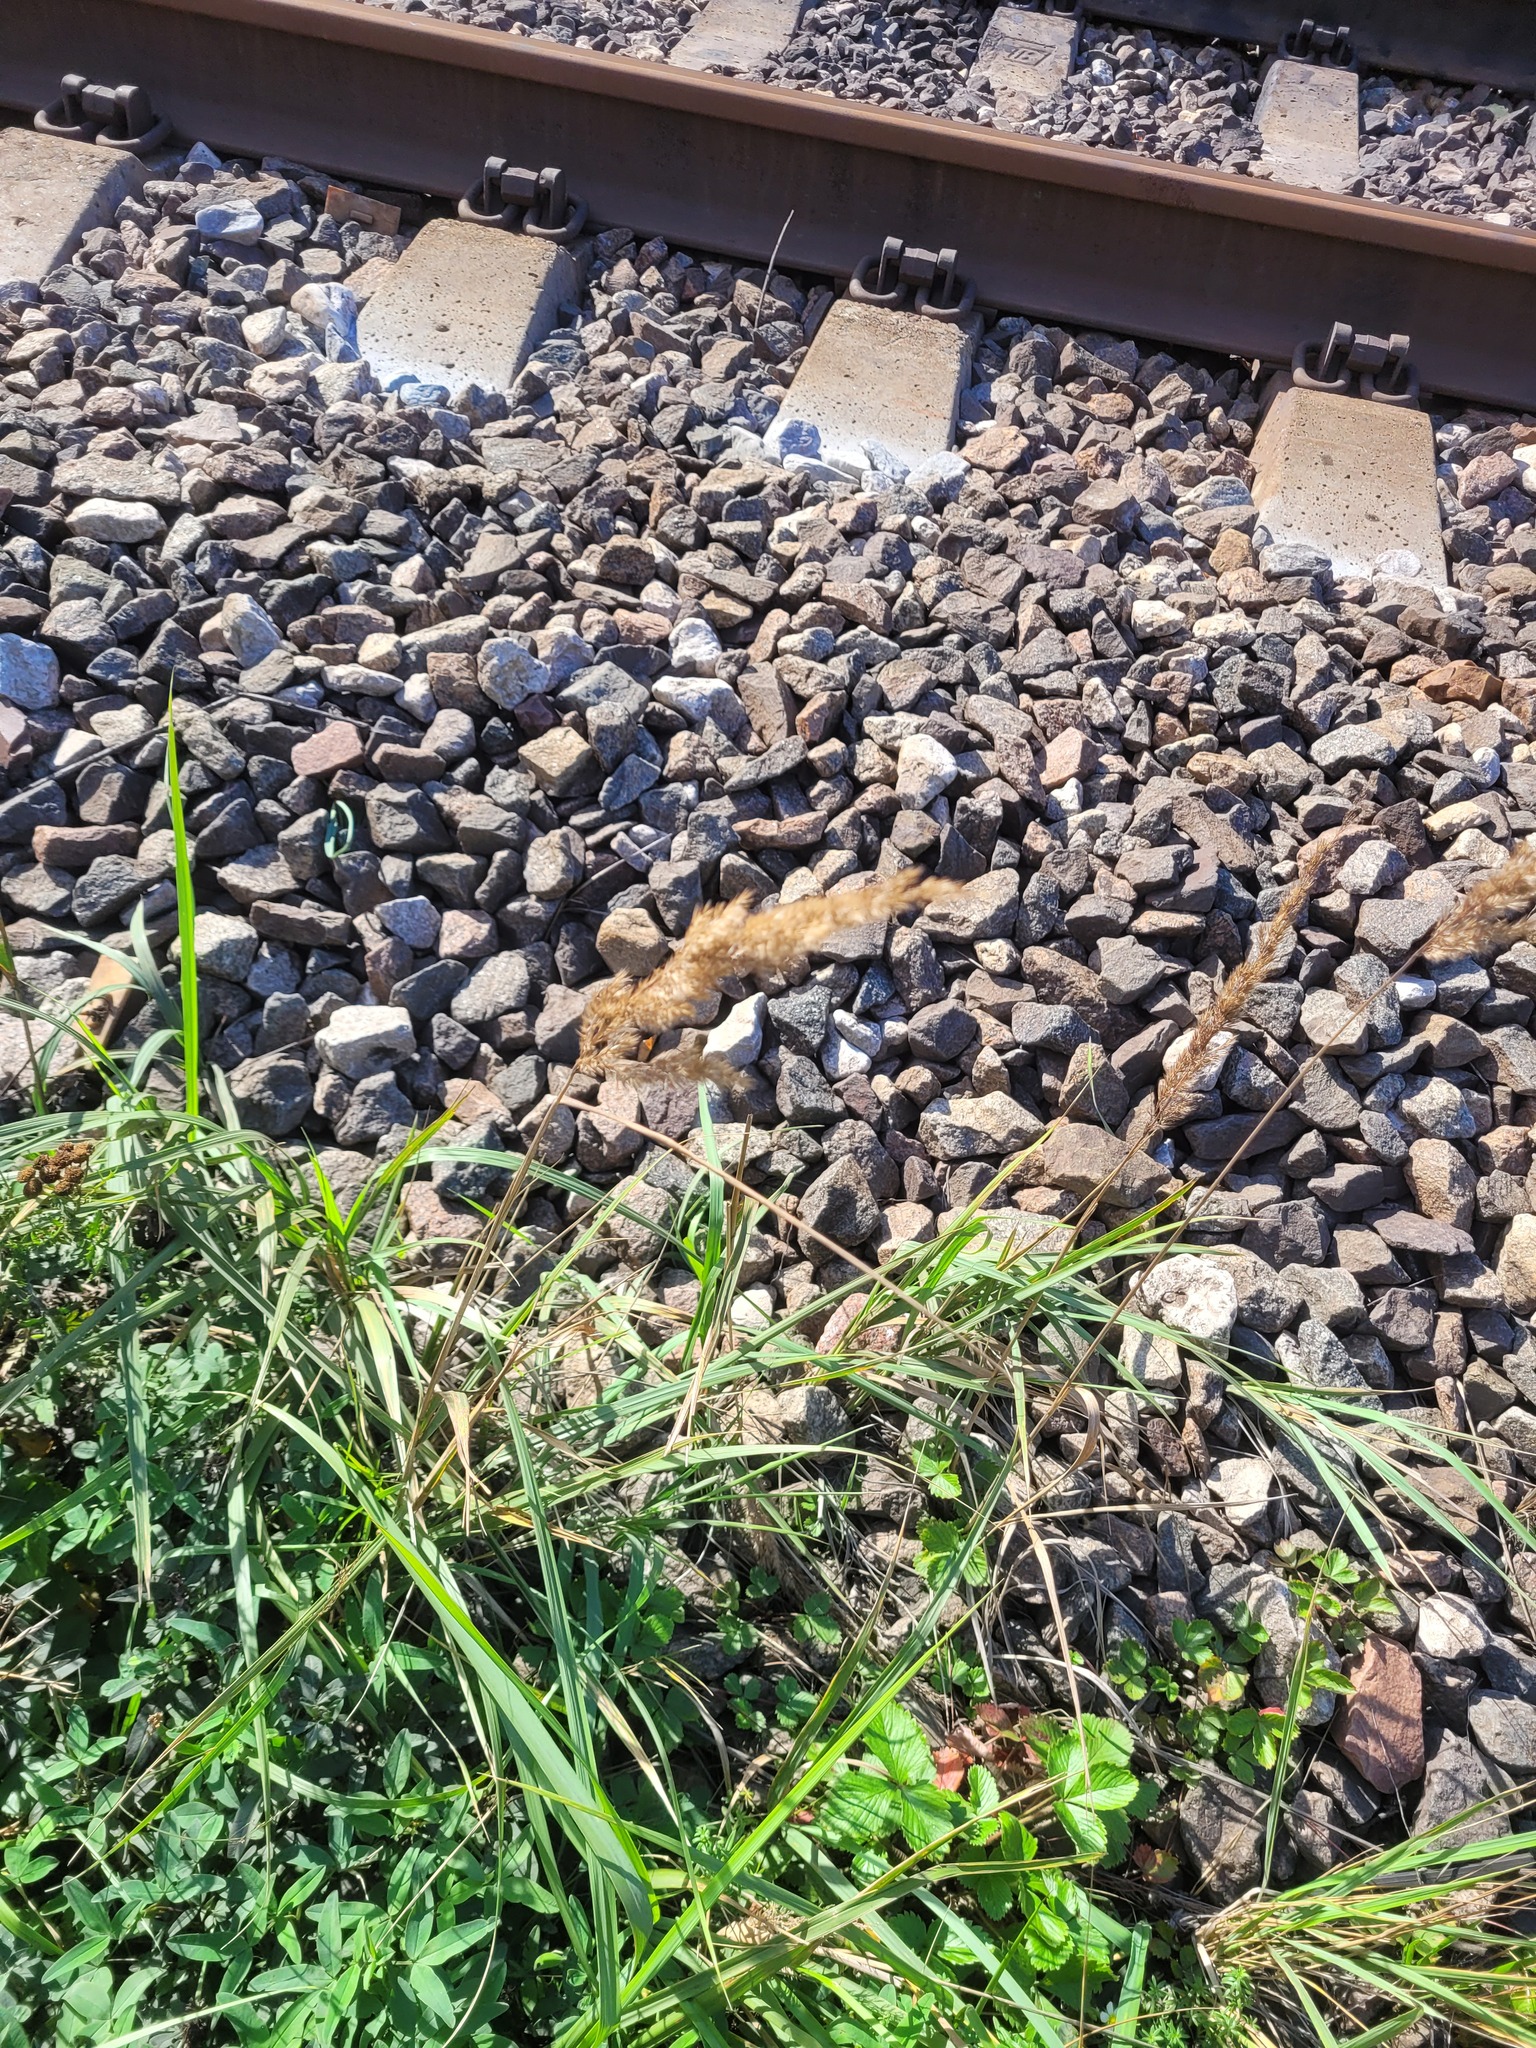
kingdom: Plantae
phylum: Tracheophyta
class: Liliopsida
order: Poales
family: Poaceae
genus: Calamagrostis
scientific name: Calamagrostis epigejos
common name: Wood small-reed
